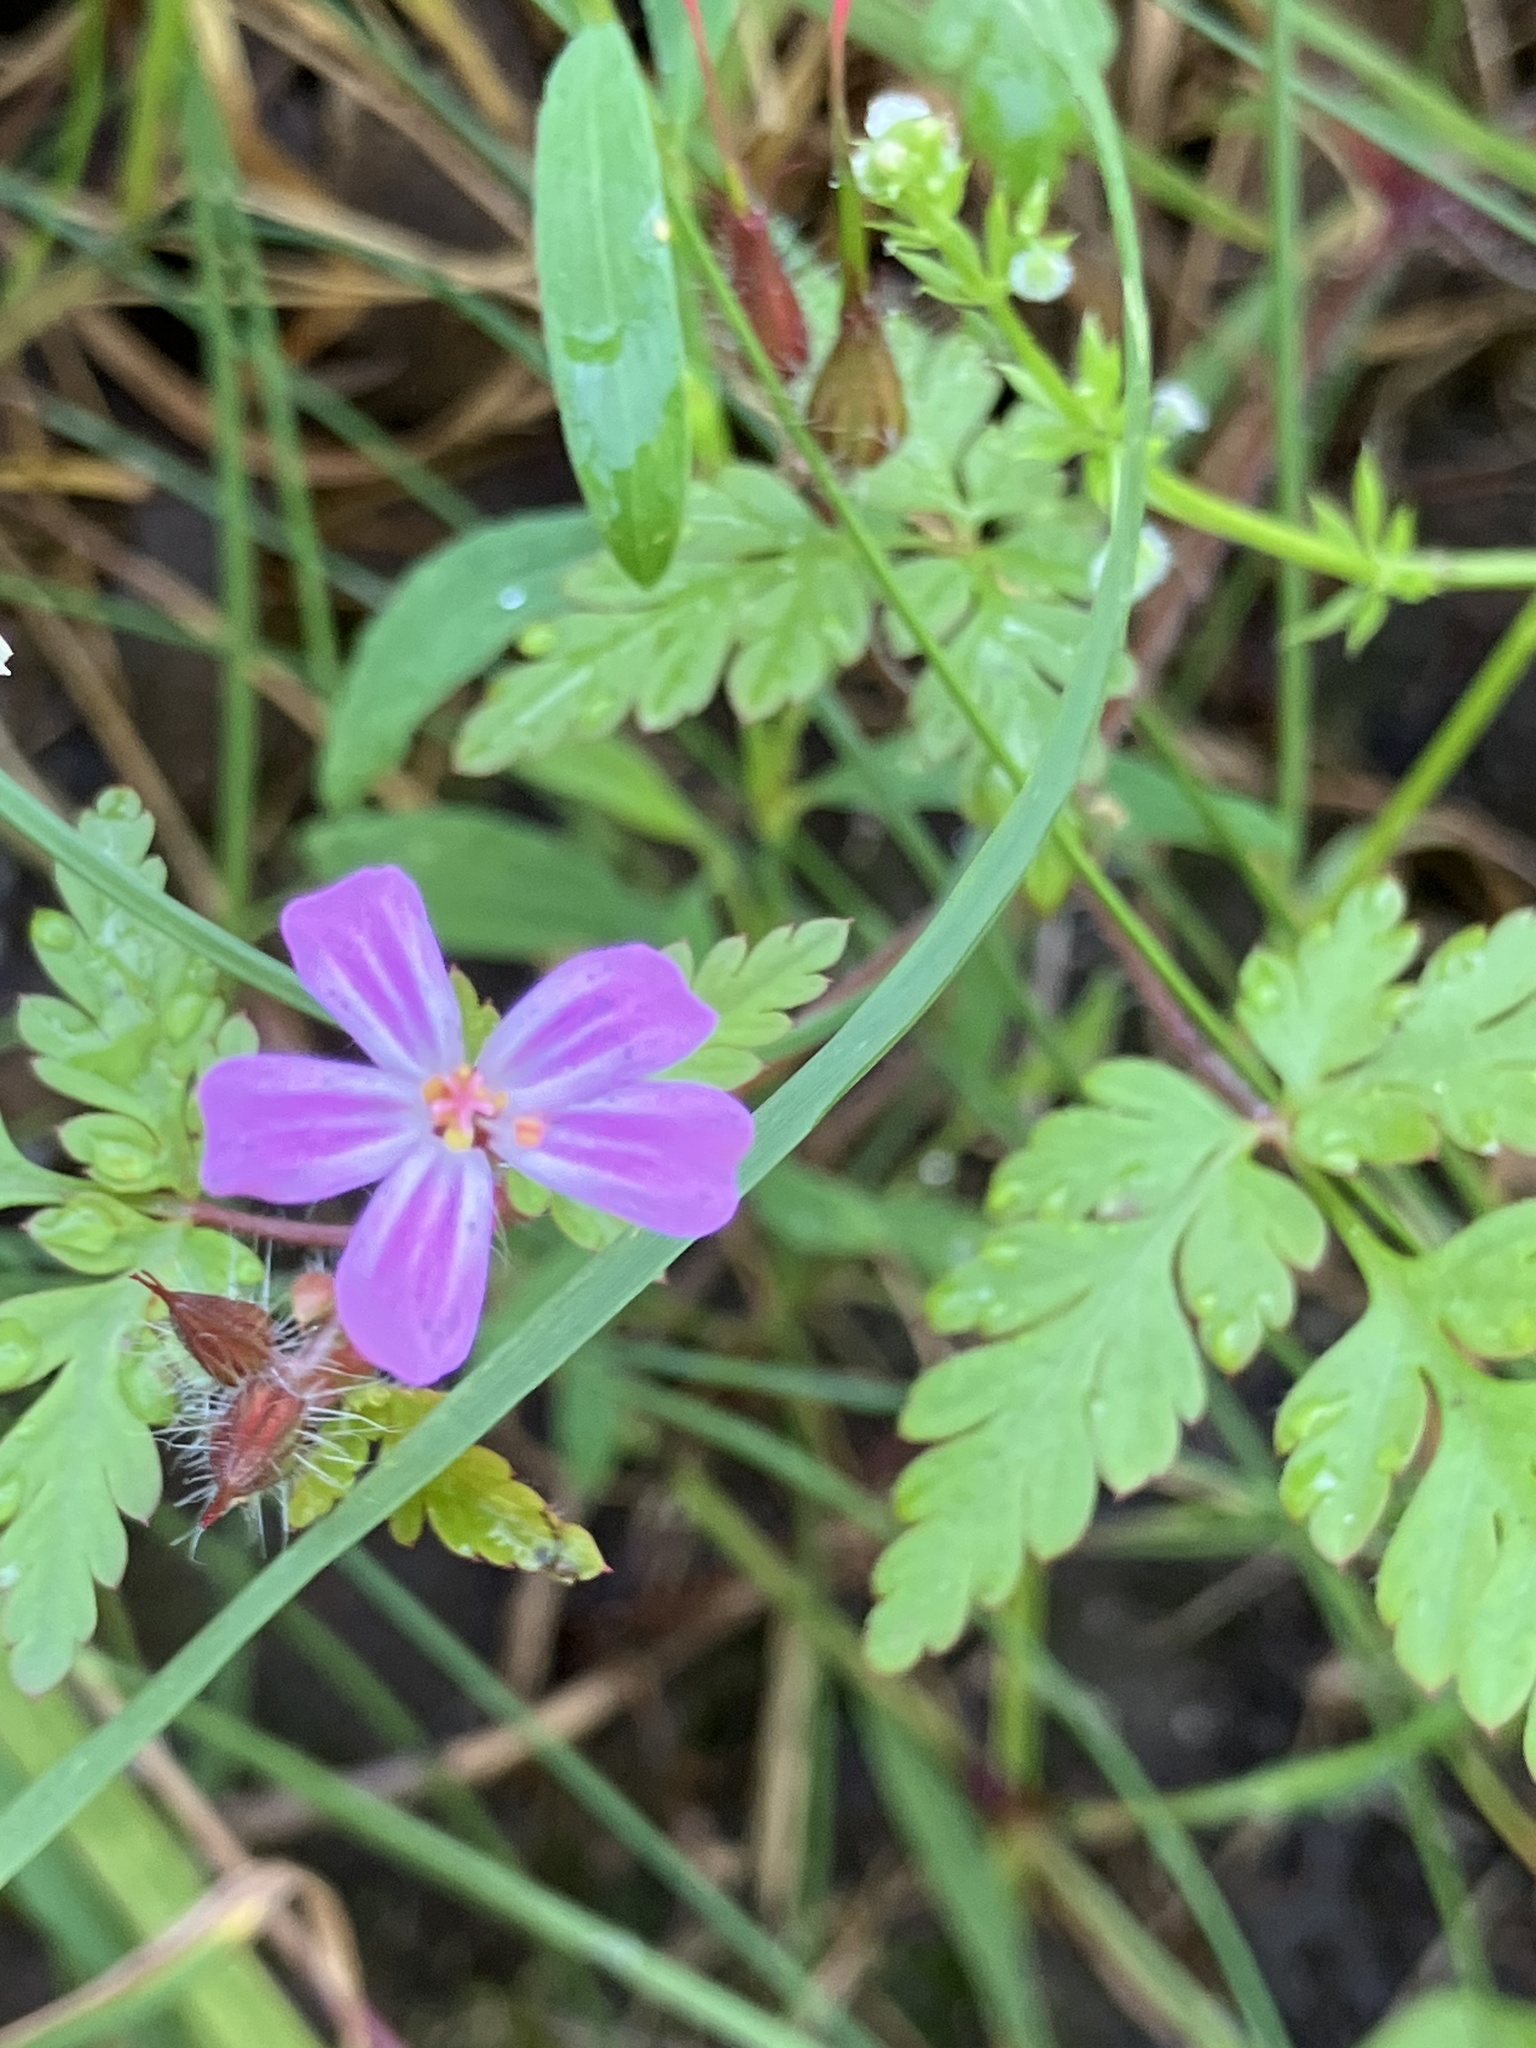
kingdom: Plantae
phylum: Tracheophyta
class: Magnoliopsida
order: Geraniales
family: Geraniaceae
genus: Geranium
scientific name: Geranium robertianum
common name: Herb-robert
